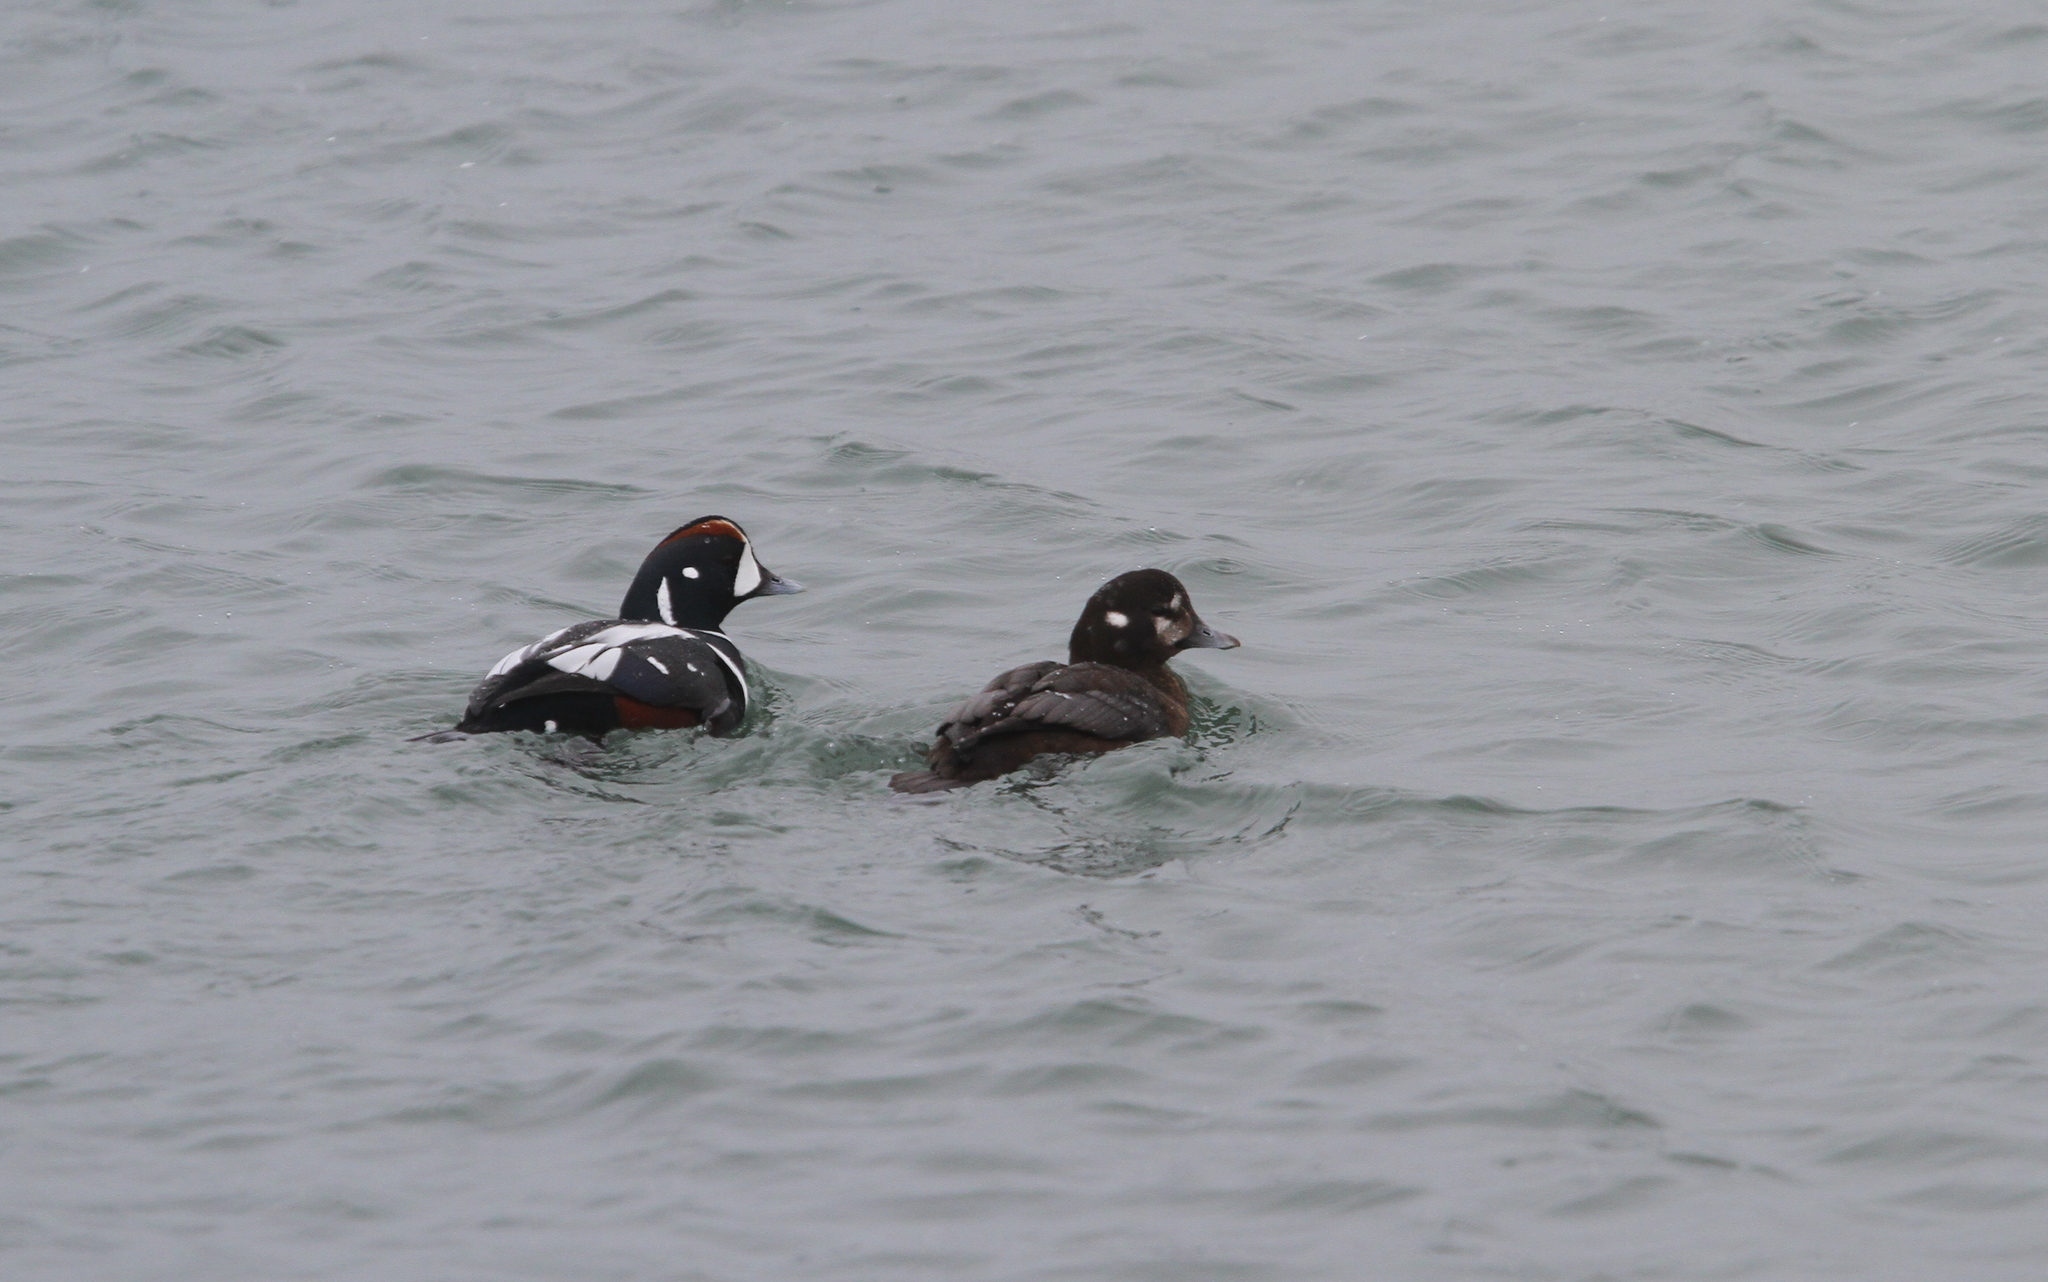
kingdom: Animalia
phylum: Chordata
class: Aves
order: Anseriformes
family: Anatidae
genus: Histrionicus
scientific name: Histrionicus histrionicus
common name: Harlequin duck
